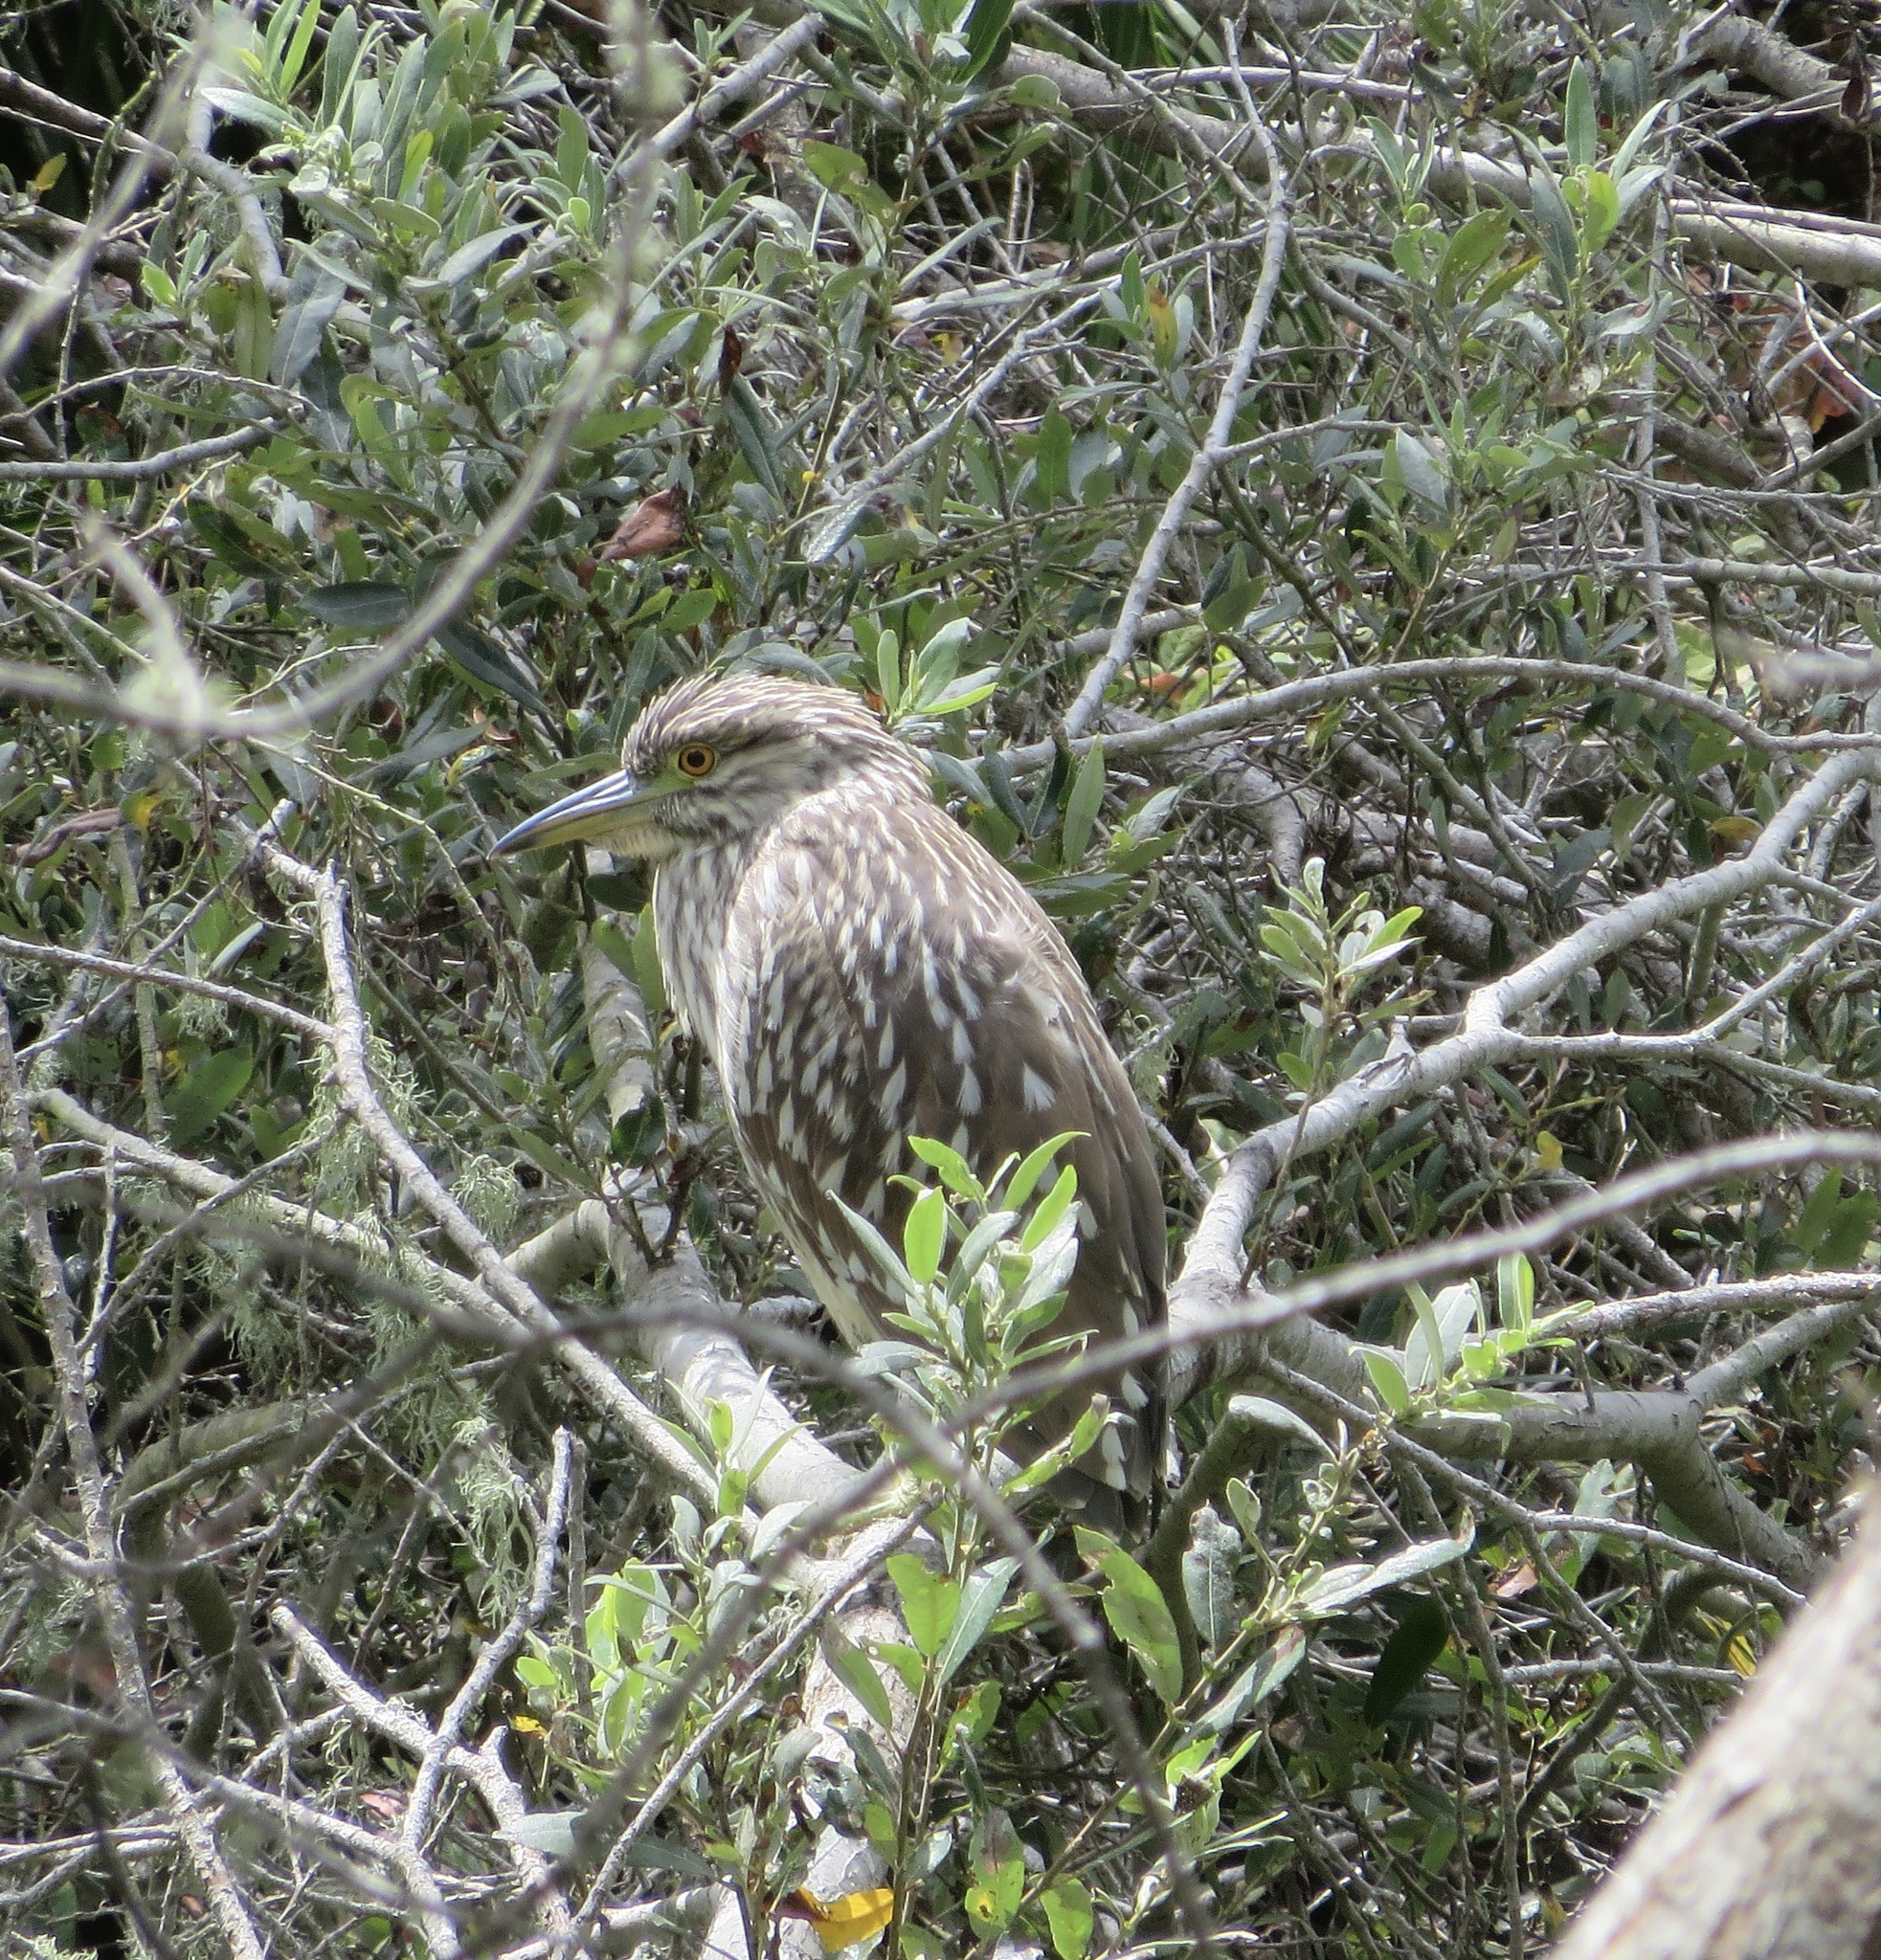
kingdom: Animalia
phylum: Chordata
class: Aves
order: Pelecaniformes
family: Ardeidae
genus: Nycticorax
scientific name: Nycticorax nycticorax
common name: Black-crowned night heron
